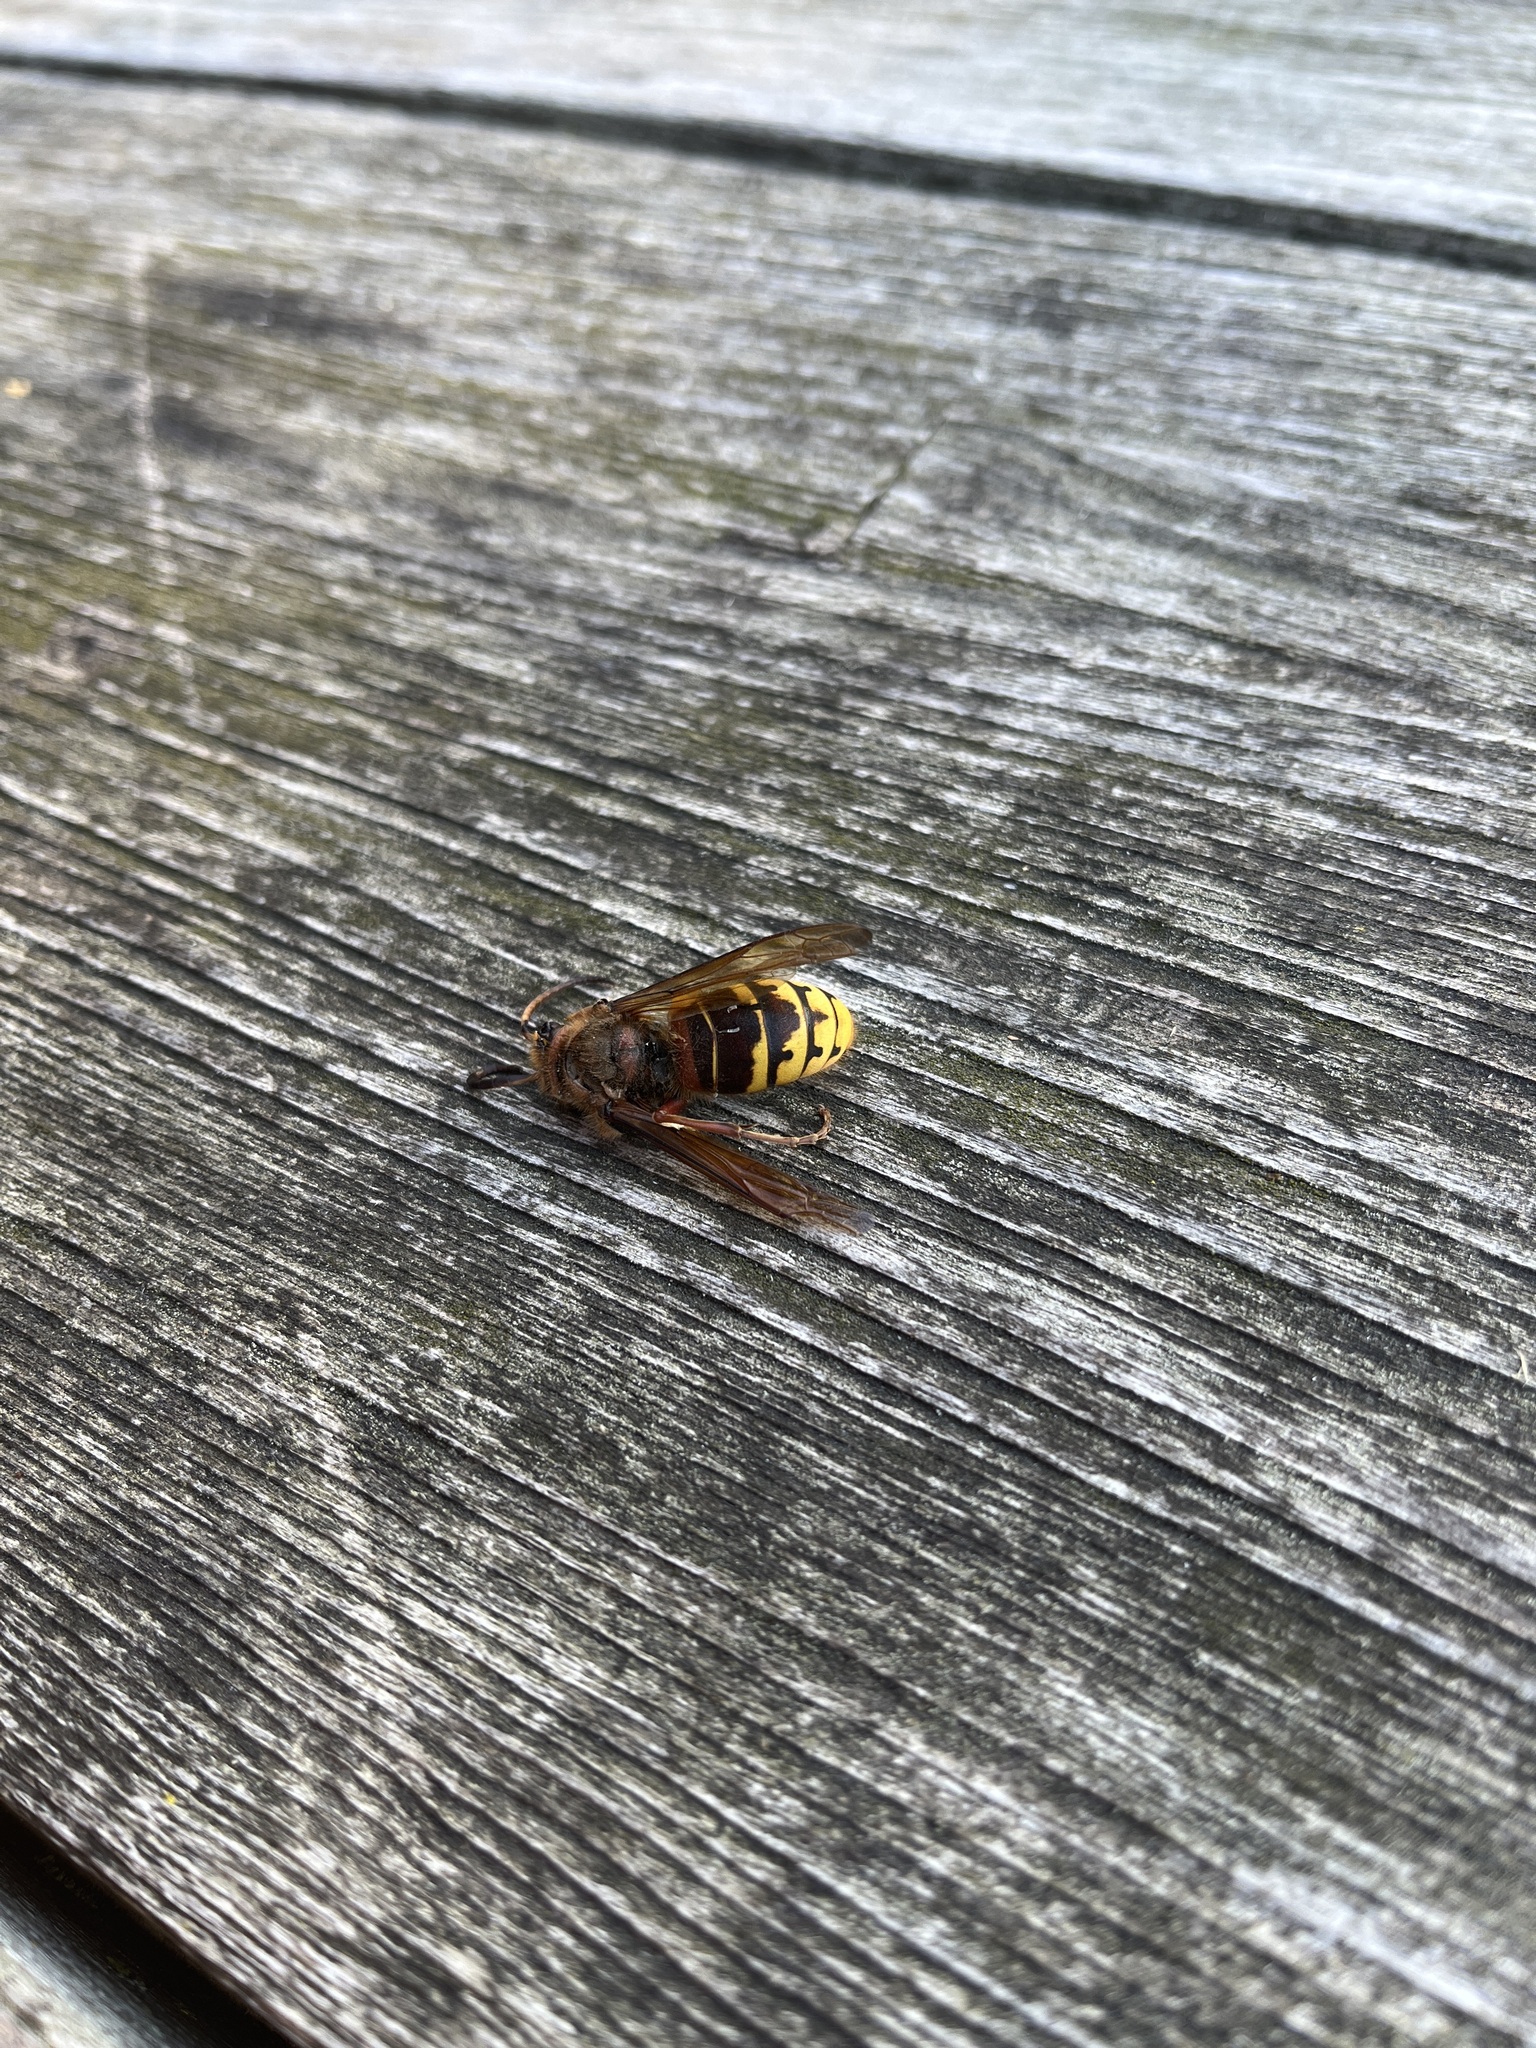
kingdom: Animalia
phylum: Arthropoda
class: Insecta
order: Hymenoptera
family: Vespidae
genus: Vespa
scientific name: Vespa crabro
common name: Hornet
